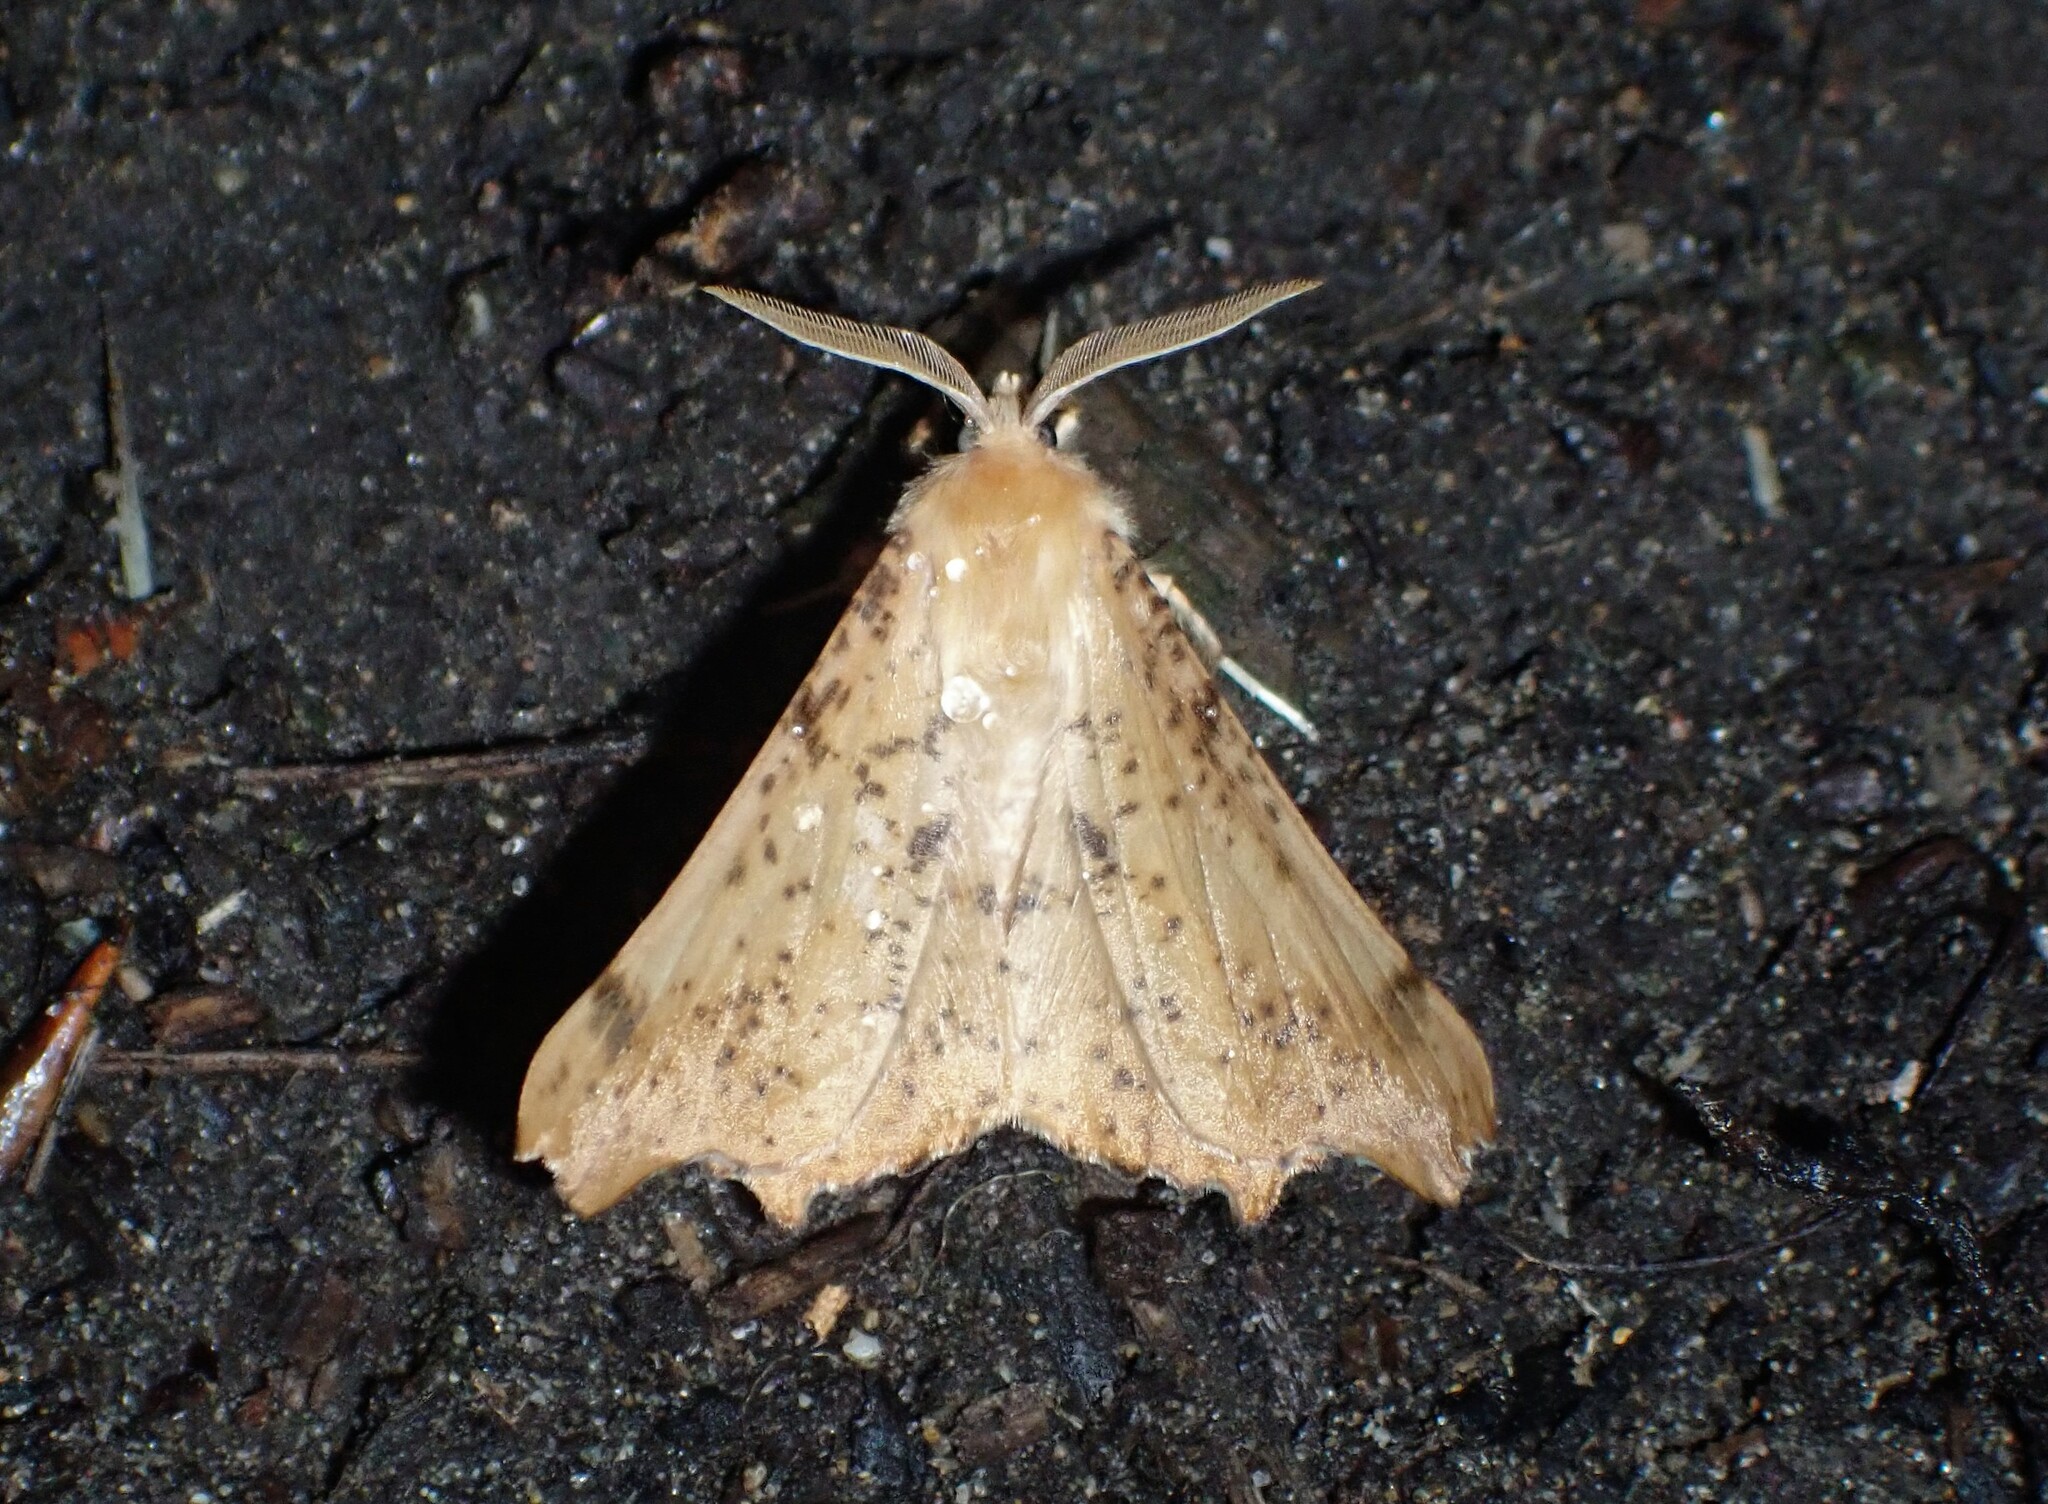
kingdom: Animalia
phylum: Arthropoda
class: Insecta
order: Lepidoptera
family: Geometridae
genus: Ennomos
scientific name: Ennomos magnaria
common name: Maple spanworm
